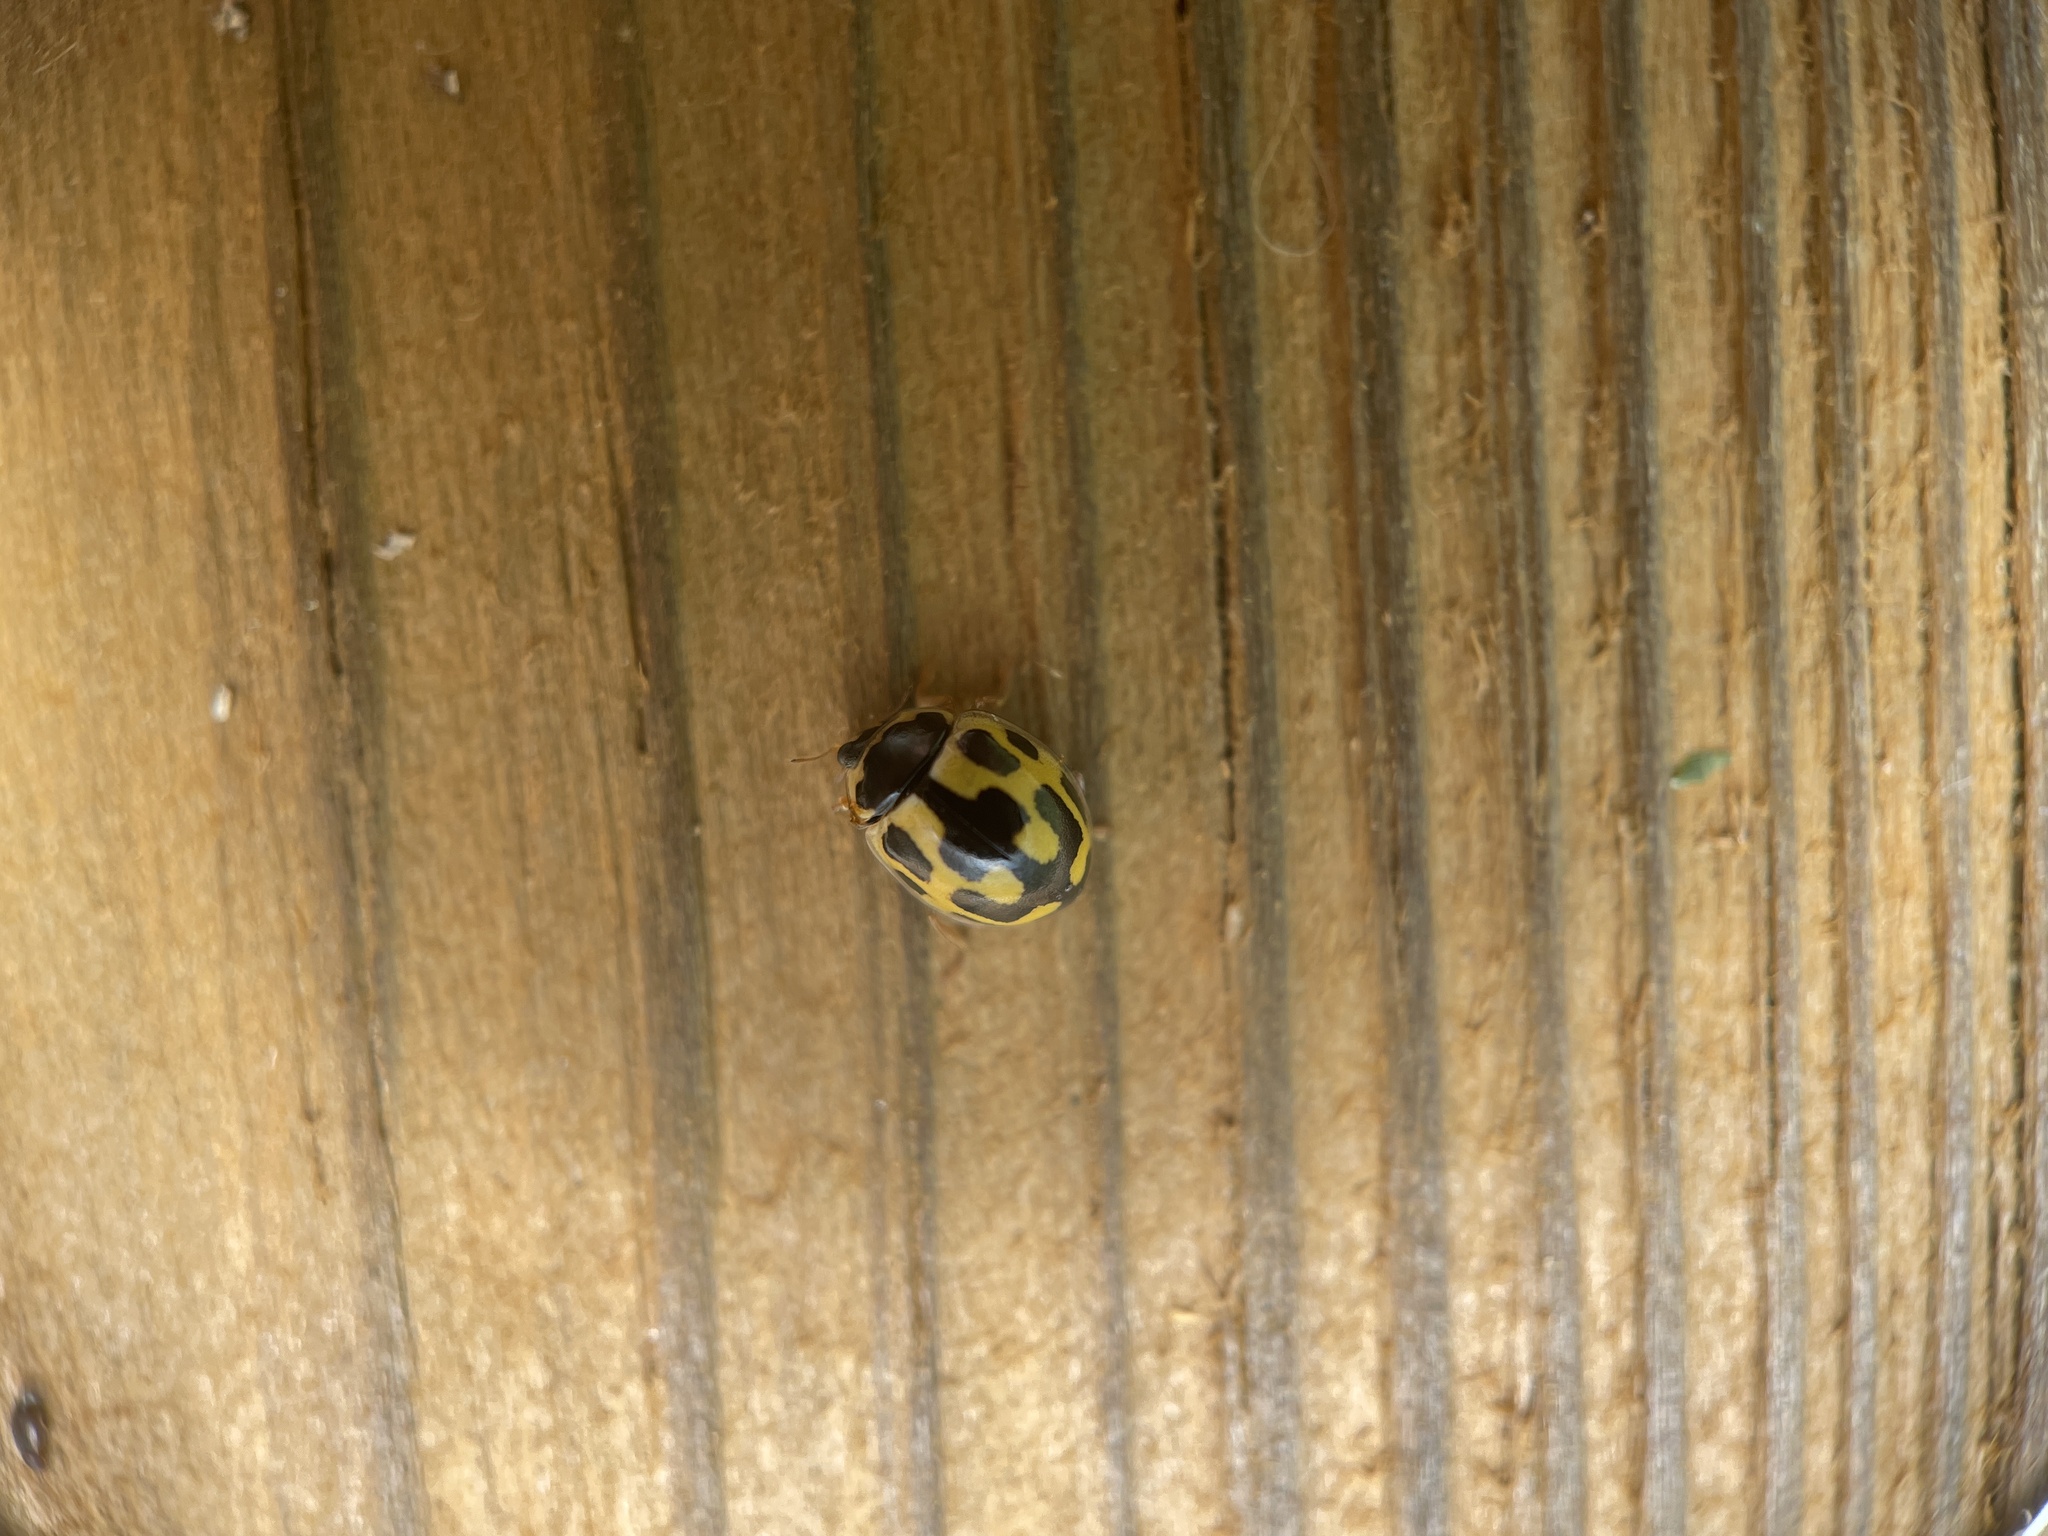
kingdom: Animalia
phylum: Arthropoda
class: Insecta
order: Coleoptera
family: Coccinellidae
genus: Propylaea
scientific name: Propylaea quatuordecimpunctata
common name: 14-spotted ladybird beetle
